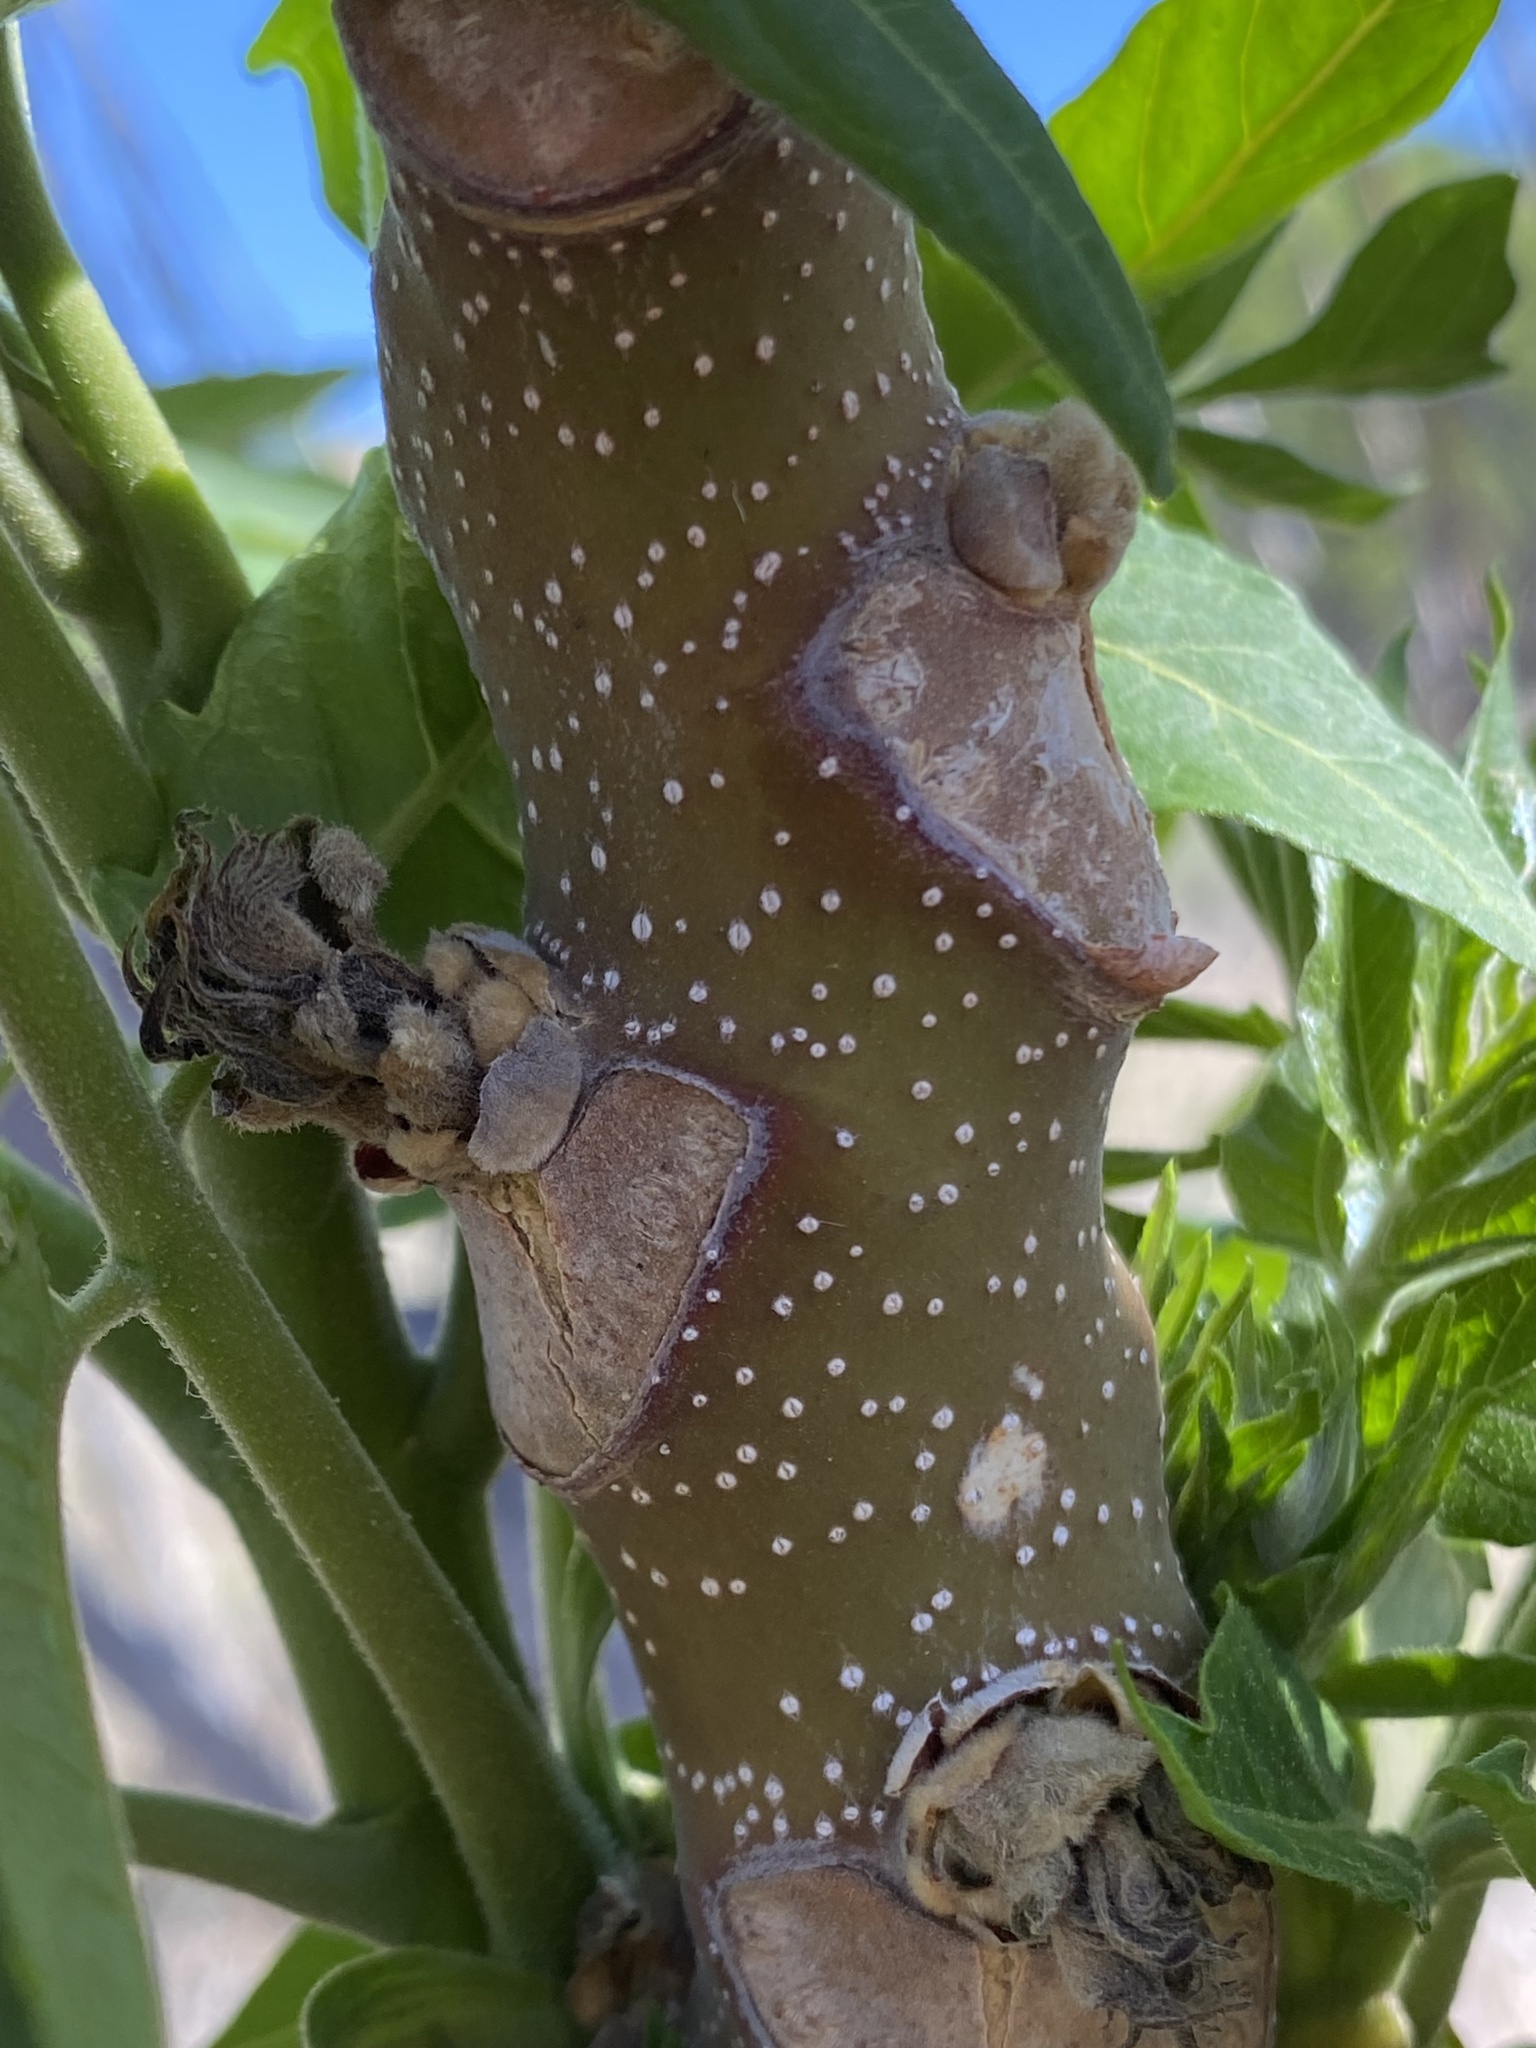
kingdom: Plantae
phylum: Tracheophyta
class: Magnoliopsida
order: Sapindales
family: Simaroubaceae
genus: Ailanthus
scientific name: Ailanthus altissima
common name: Tree-of-heaven
